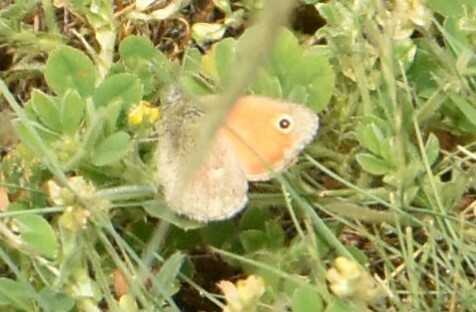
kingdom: Animalia
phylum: Arthropoda
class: Insecta
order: Lepidoptera
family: Nymphalidae
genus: Coenonympha
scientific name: Coenonympha pamphilus
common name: Small heath
